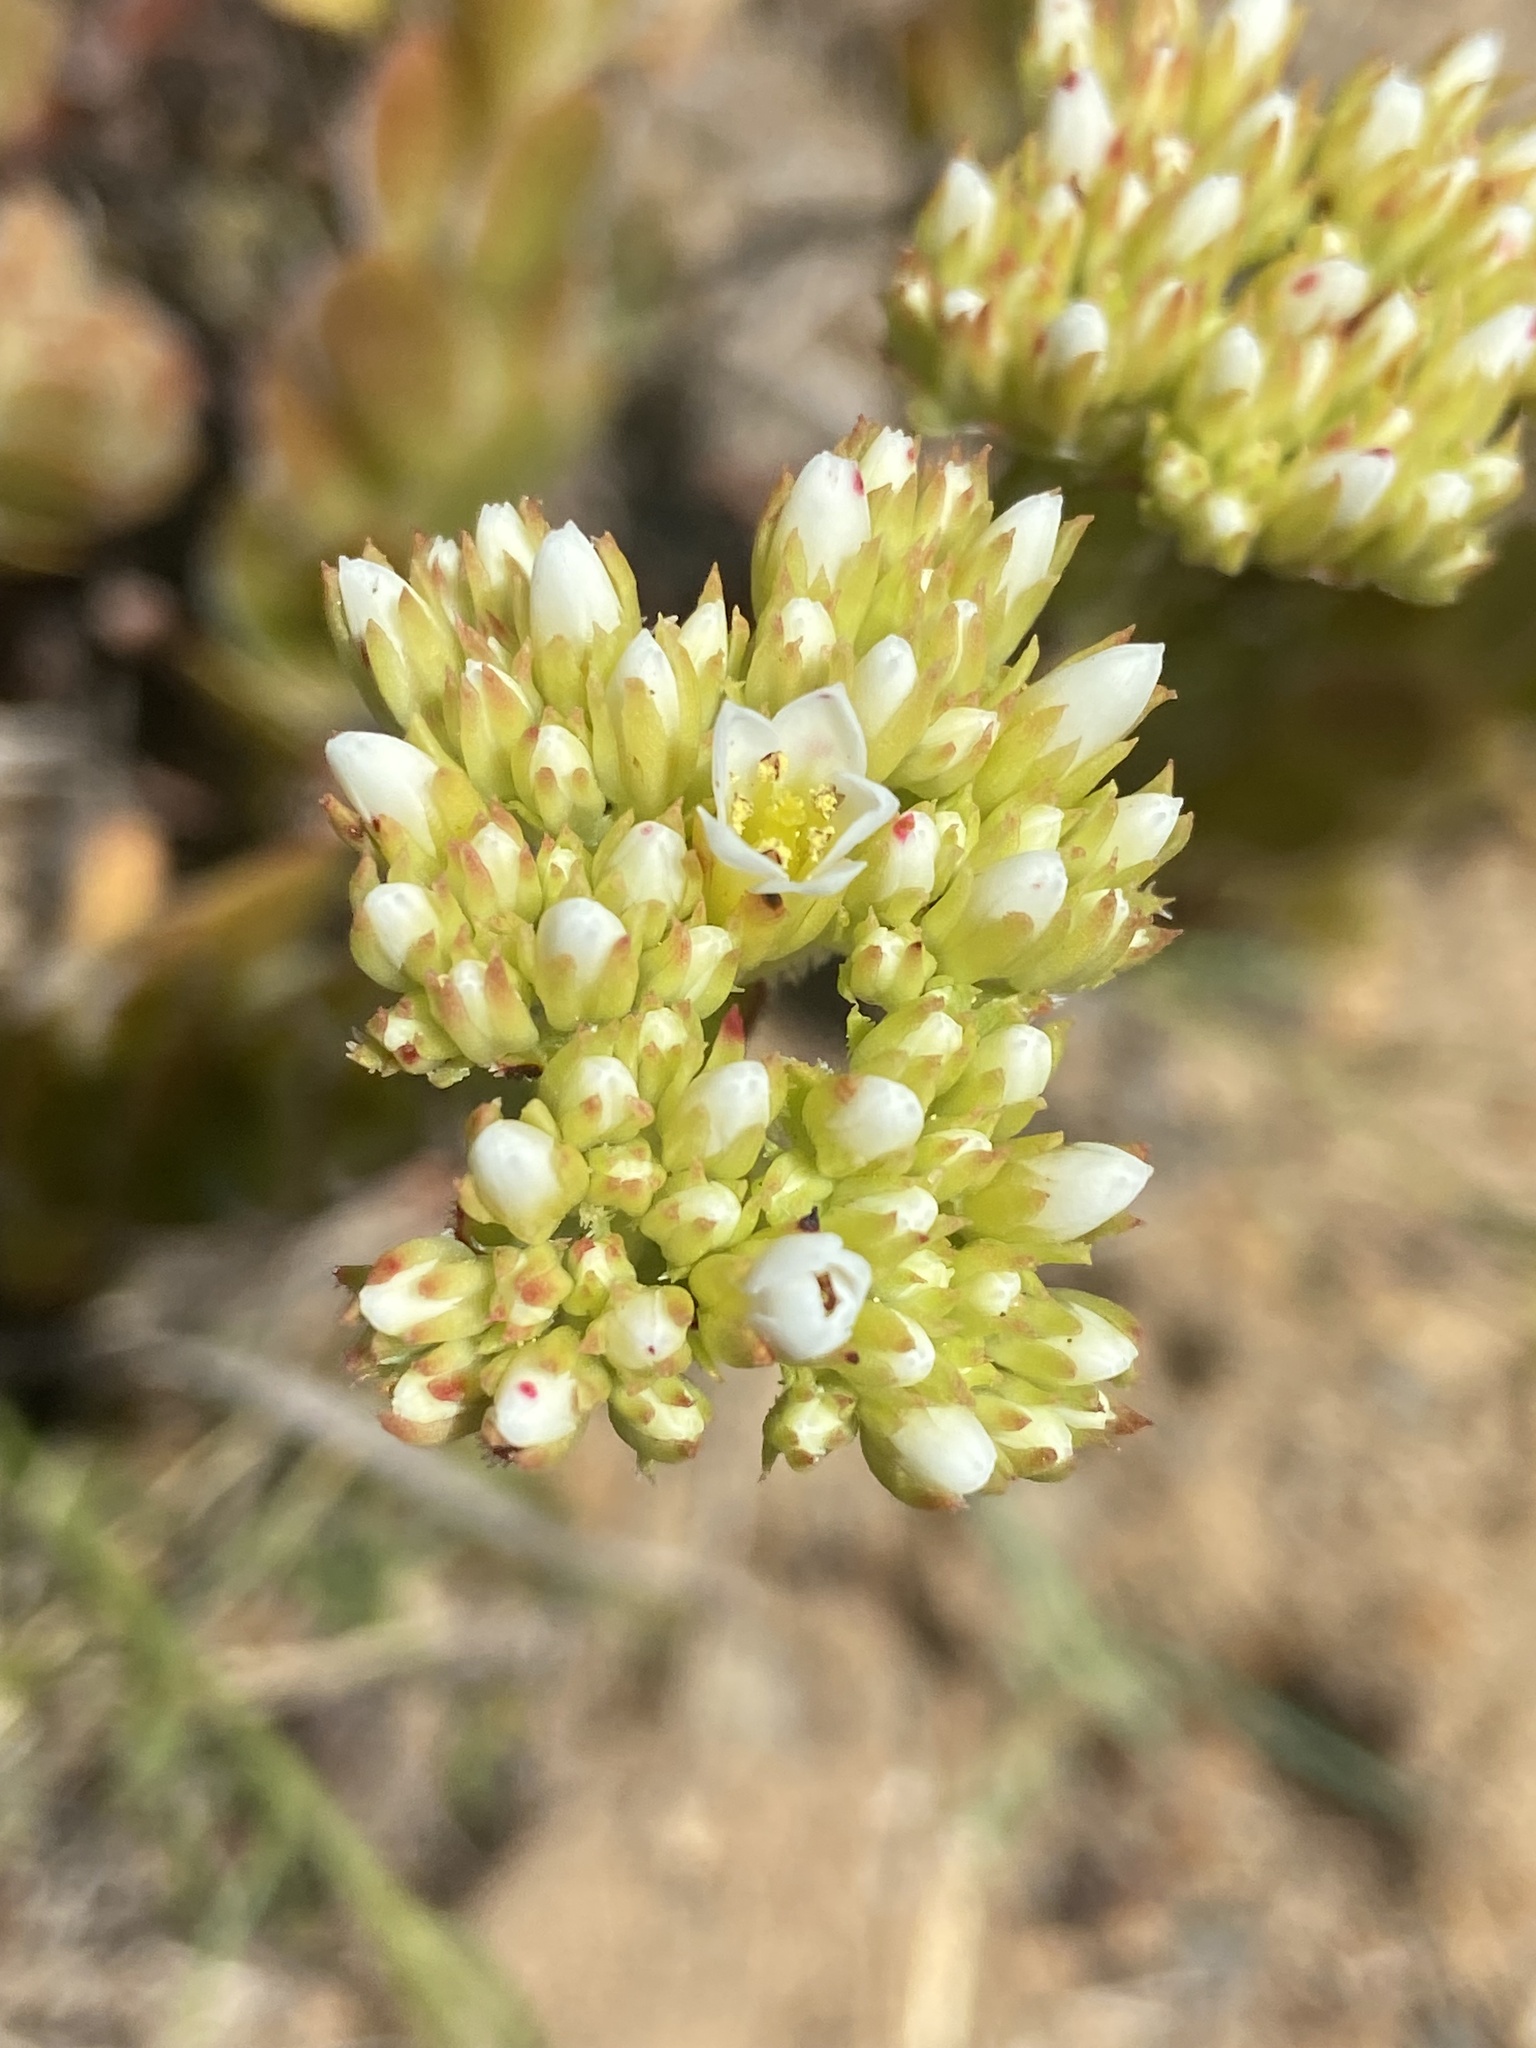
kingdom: Plantae
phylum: Tracheophyta
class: Magnoliopsida
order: Saxifragales
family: Crassulaceae
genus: Crassula
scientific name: Crassula fallax
